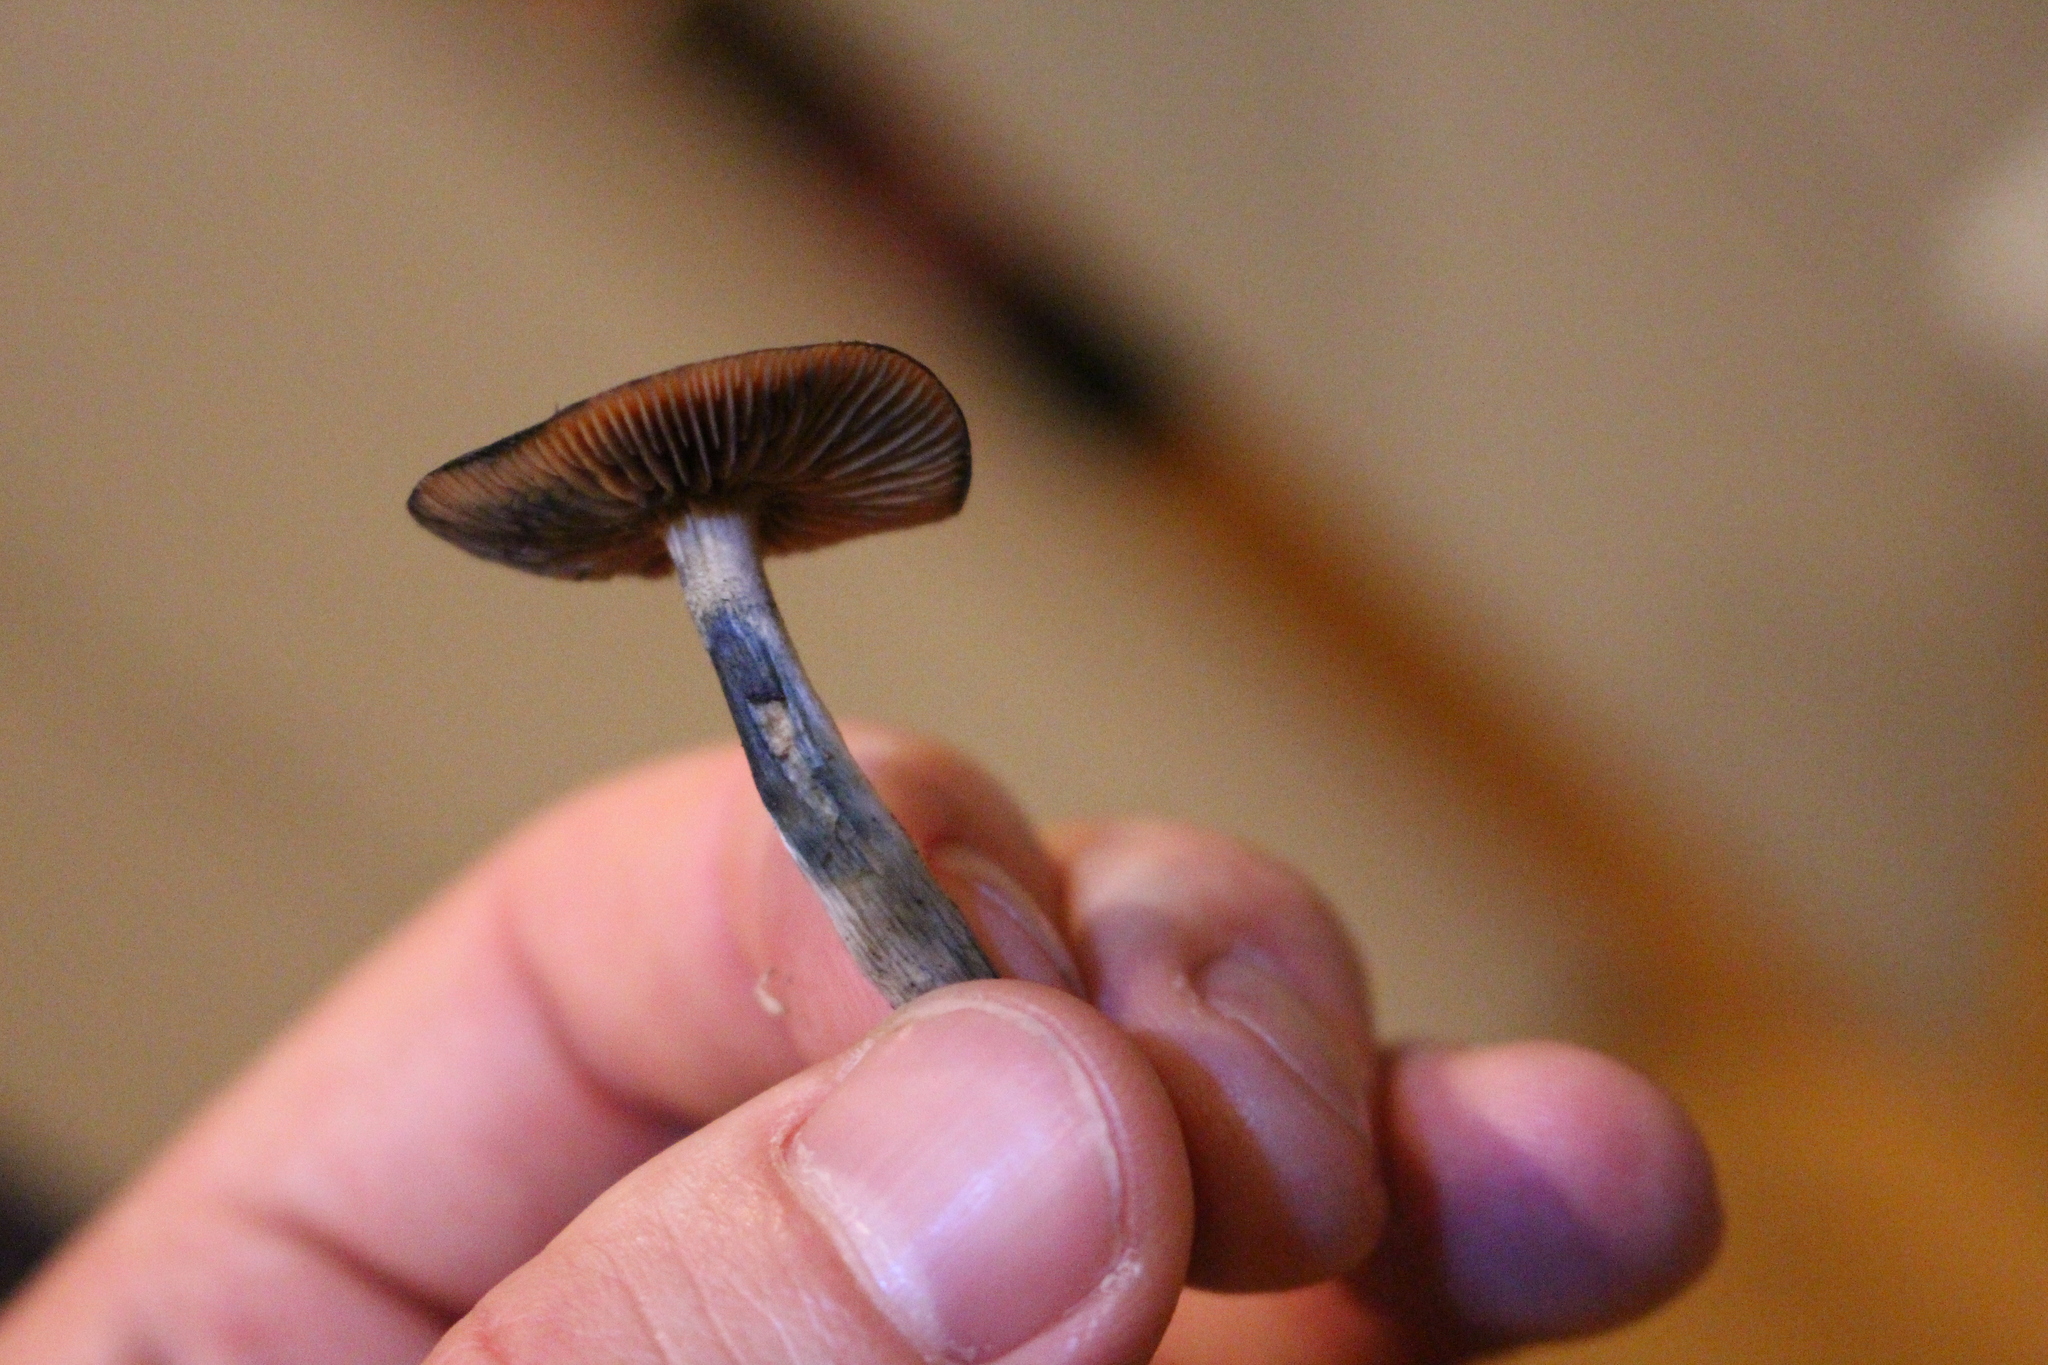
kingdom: Fungi
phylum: Basidiomycota
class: Agaricomycetes
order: Agaricales
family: Hymenogastraceae
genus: Psilocybe
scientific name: Psilocybe subaeruginosa
